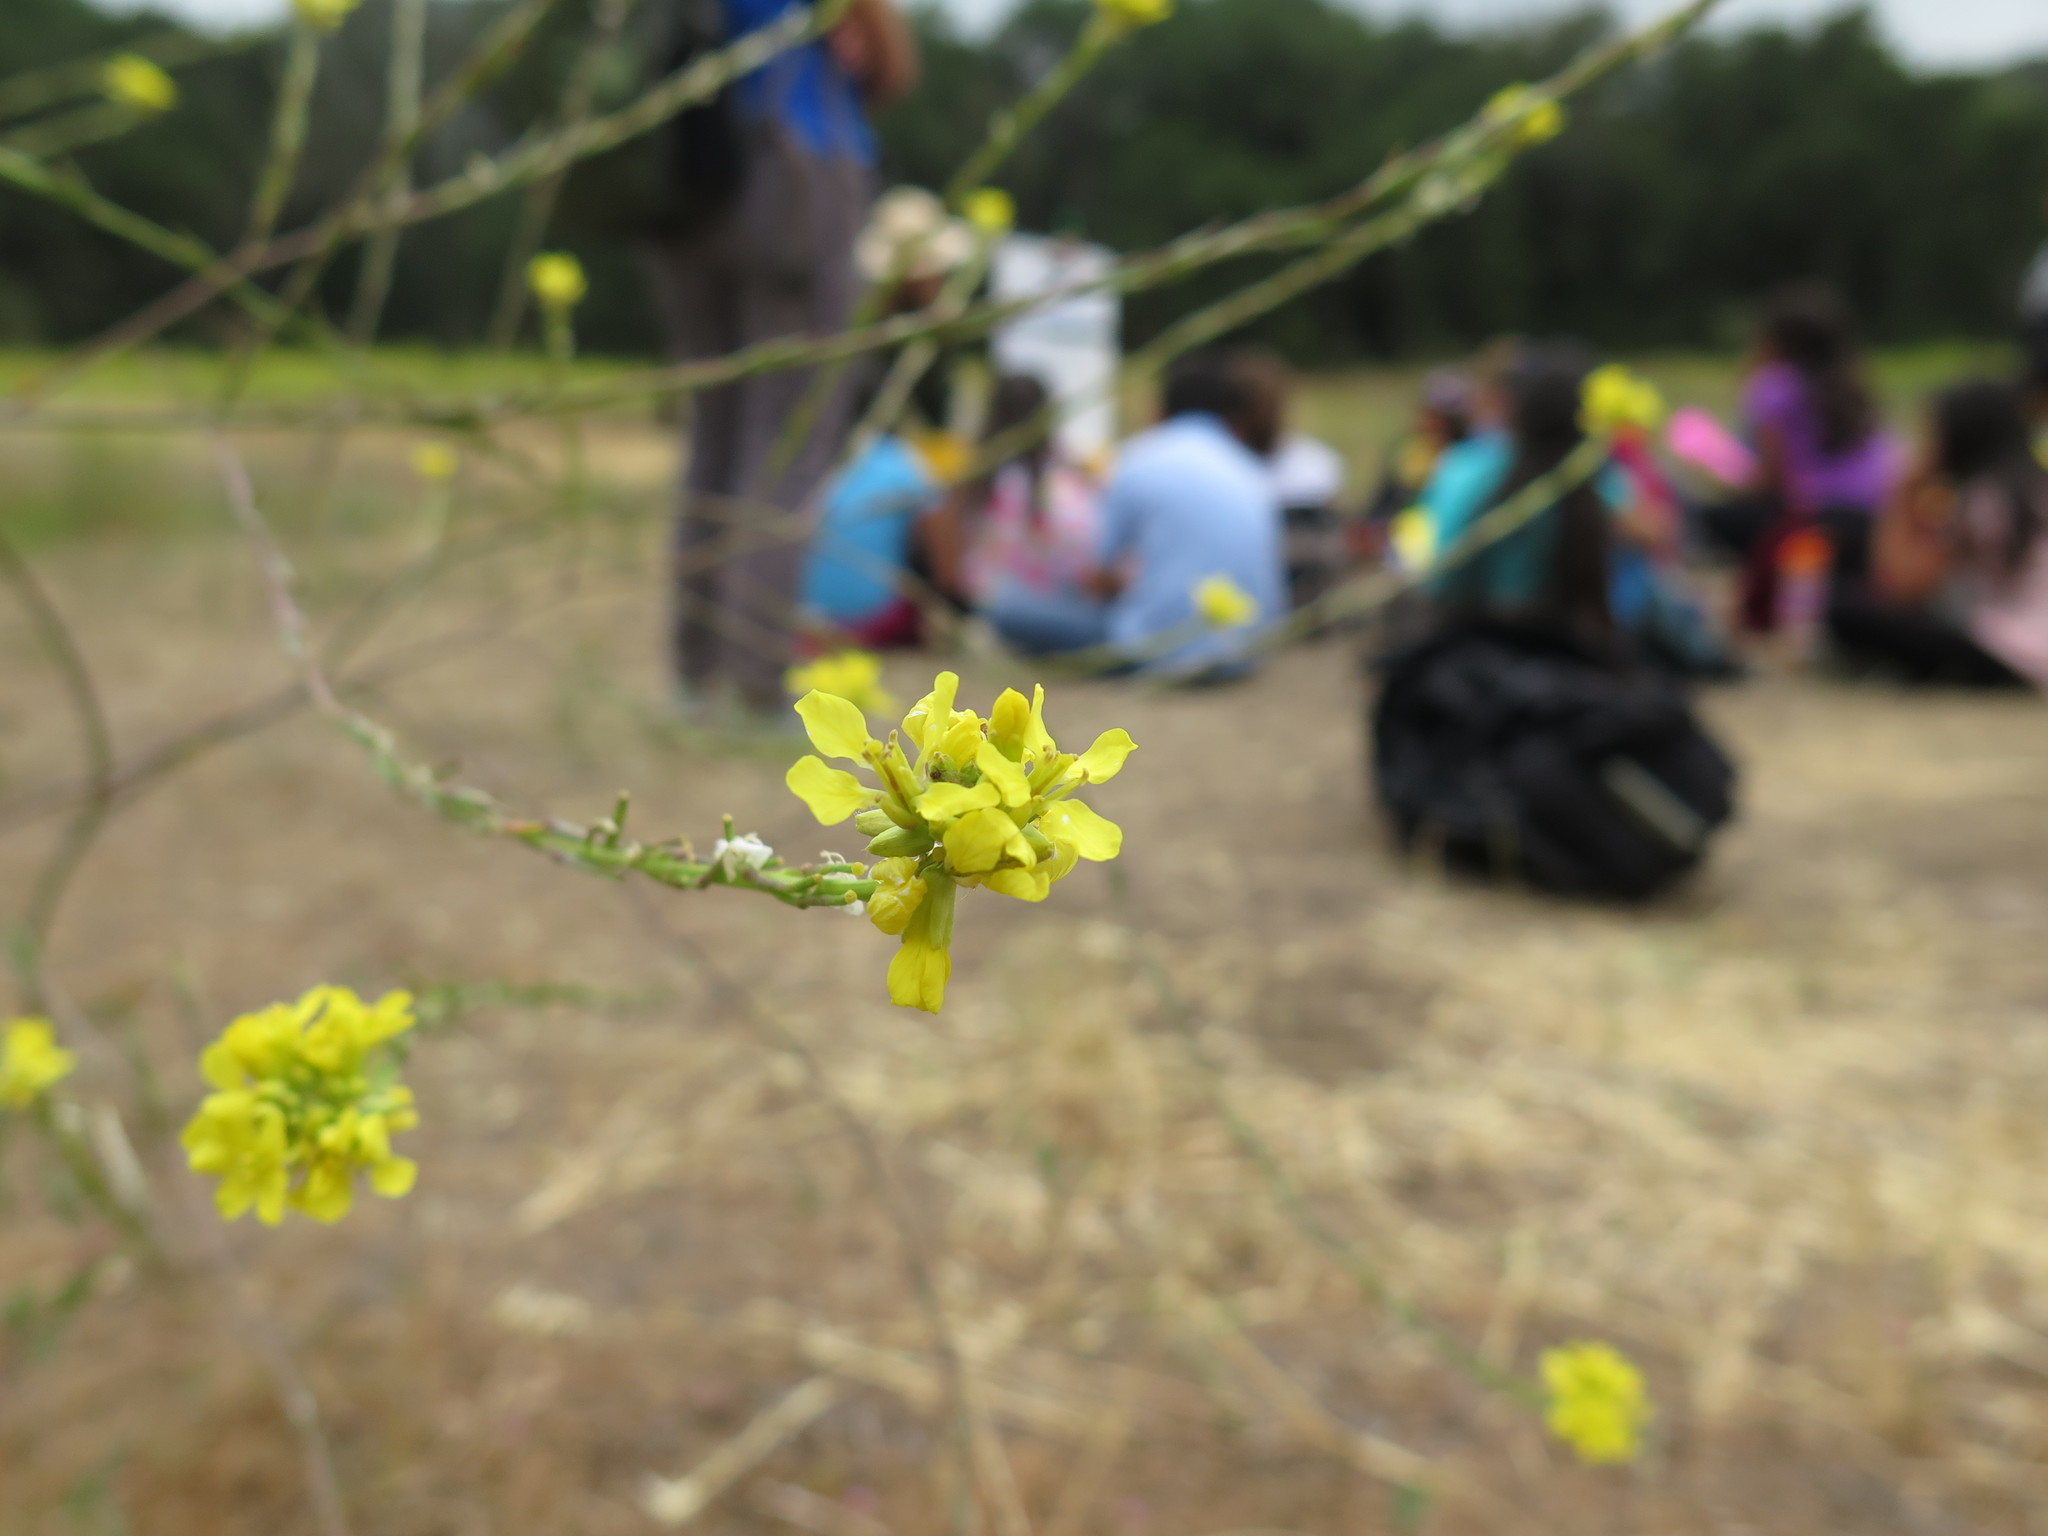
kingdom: Plantae
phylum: Tracheophyta
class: Magnoliopsida
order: Brassicales
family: Brassicaceae
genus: Hirschfeldia
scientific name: Hirschfeldia incana
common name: Hoary mustard
